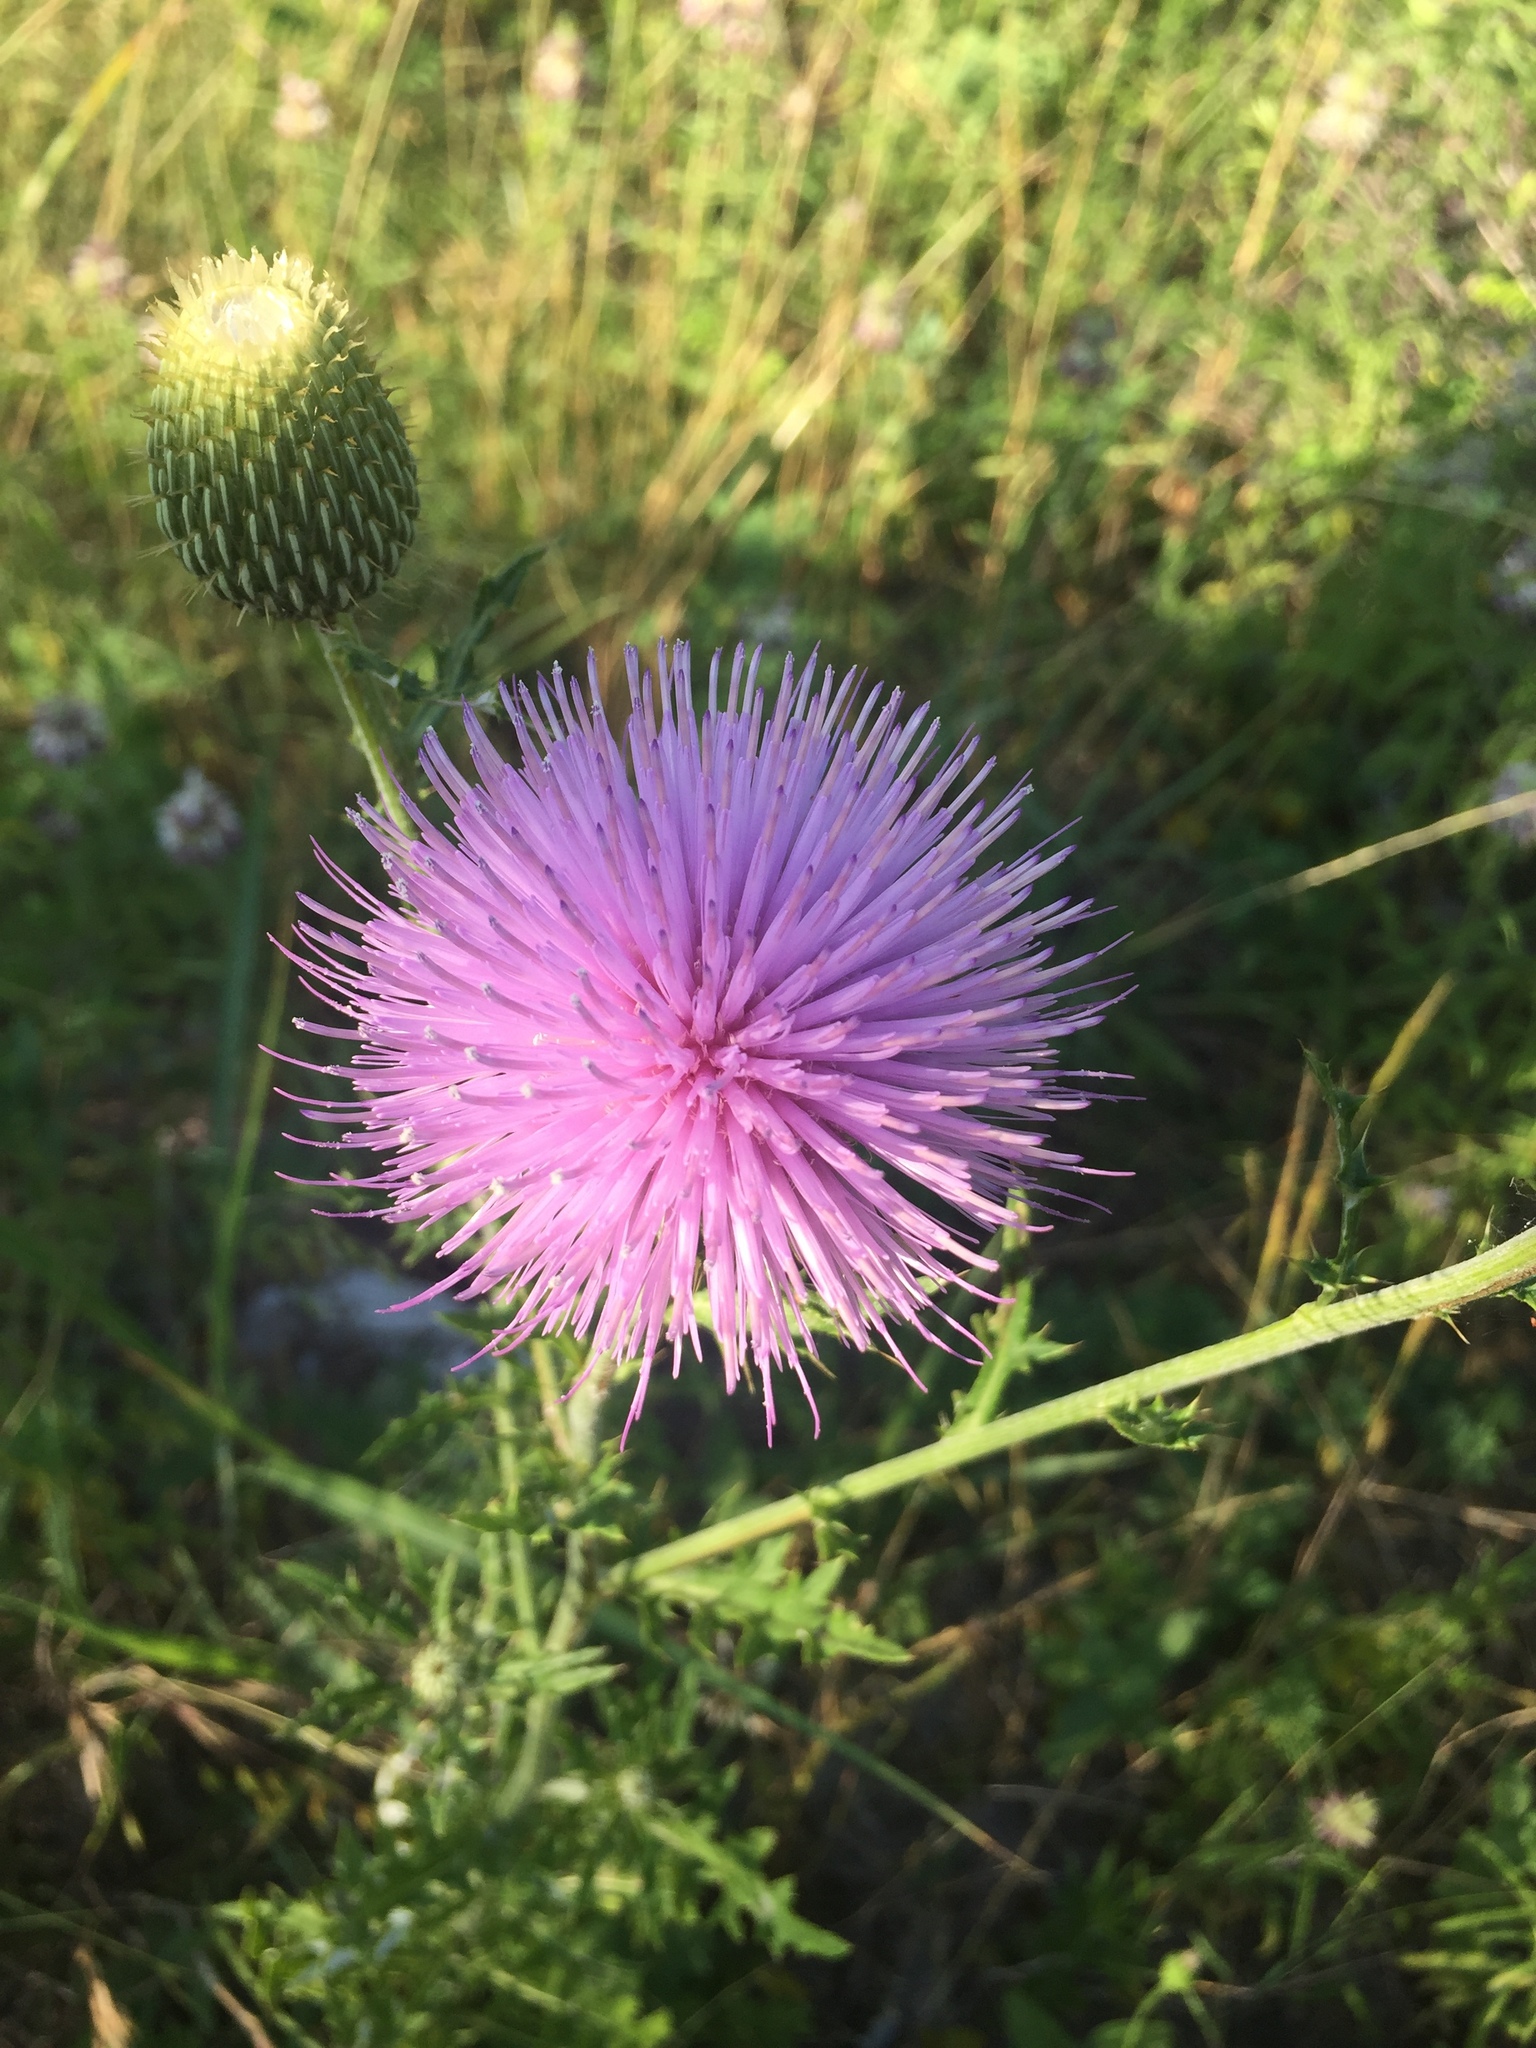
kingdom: Plantae
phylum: Tracheophyta
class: Magnoliopsida
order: Asterales
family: Asteraceae
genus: Cirsium
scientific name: Cirsium texanum
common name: Texas purple thistle
